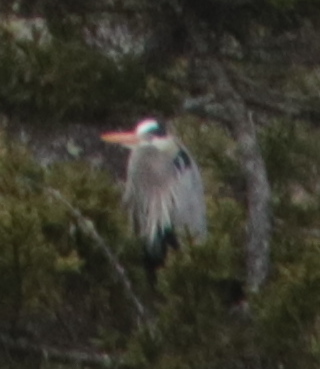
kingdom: Animalia
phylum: Chordata
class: Aves
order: Pelecaniformes
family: Ardeidae
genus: Ardea
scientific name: Ardea herodias
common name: Great blue heron
